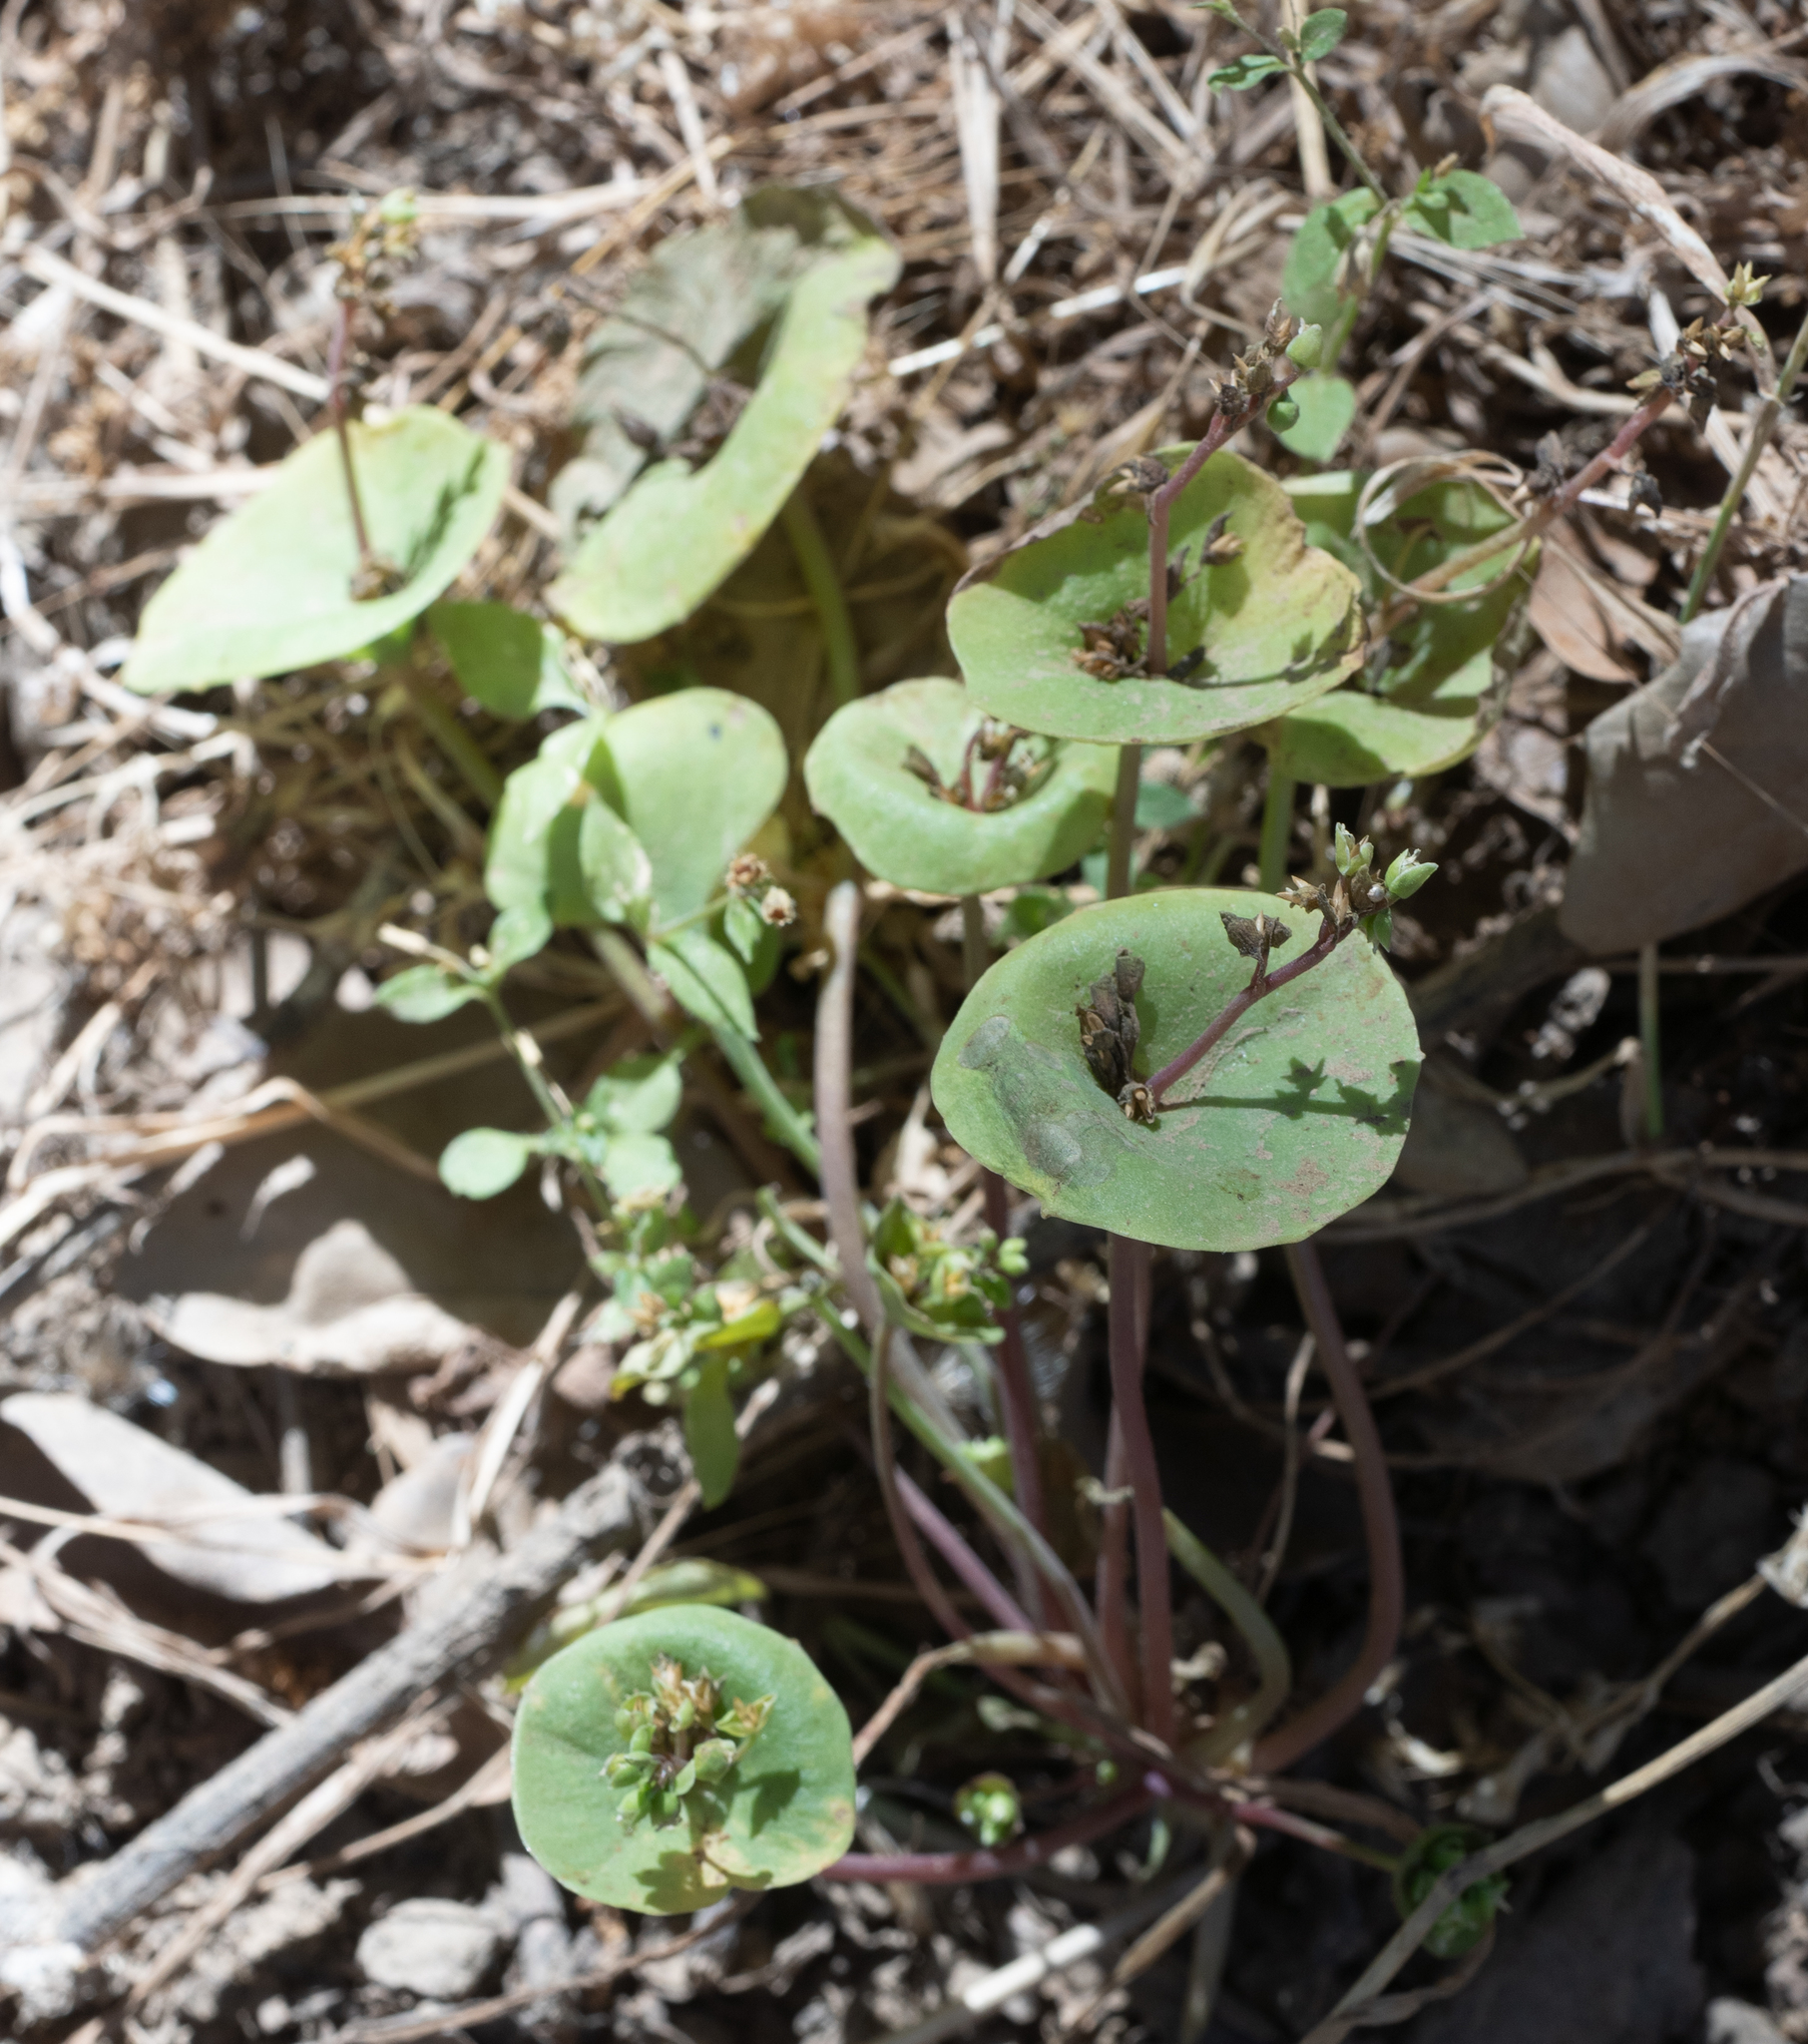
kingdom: Plantae
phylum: Tracheophyta
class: Magnoliopsida
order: Caryophyllales
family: Montiaceae
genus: Claytonia
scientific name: Claytonia perfoliata
